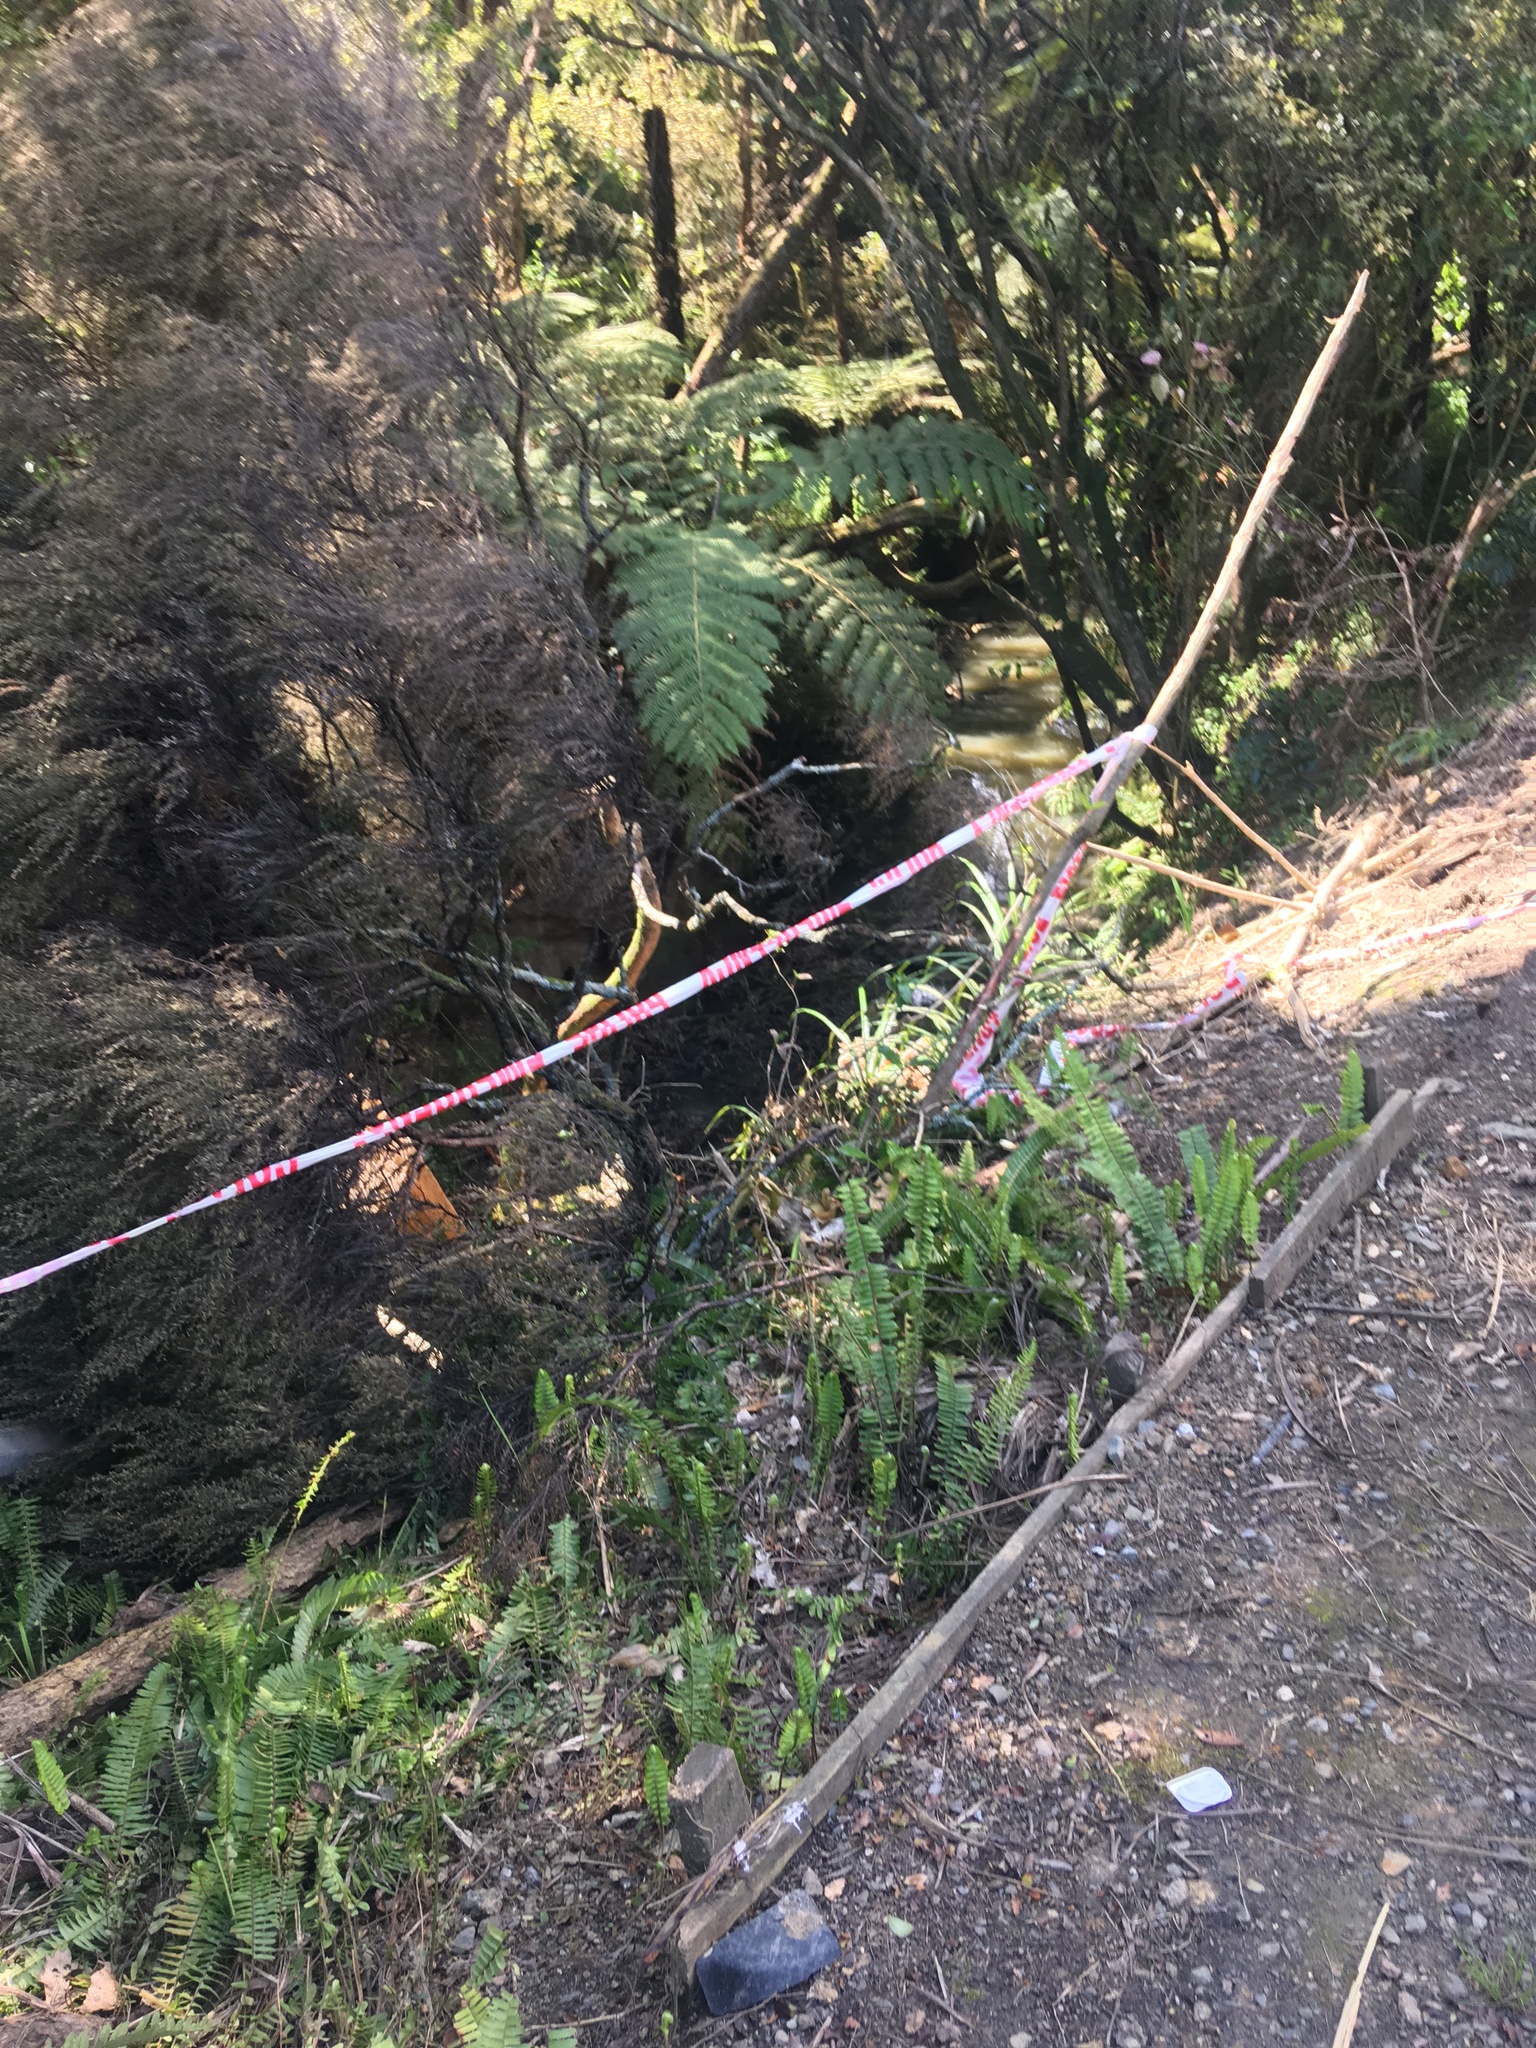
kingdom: Plantae
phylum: Tracheophyta
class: Polypodiopsida
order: Polypodiales
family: Nephrolepidaceae
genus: Nephrolepis
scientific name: Nephrolepis cordifolia
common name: Narrow swordfern
